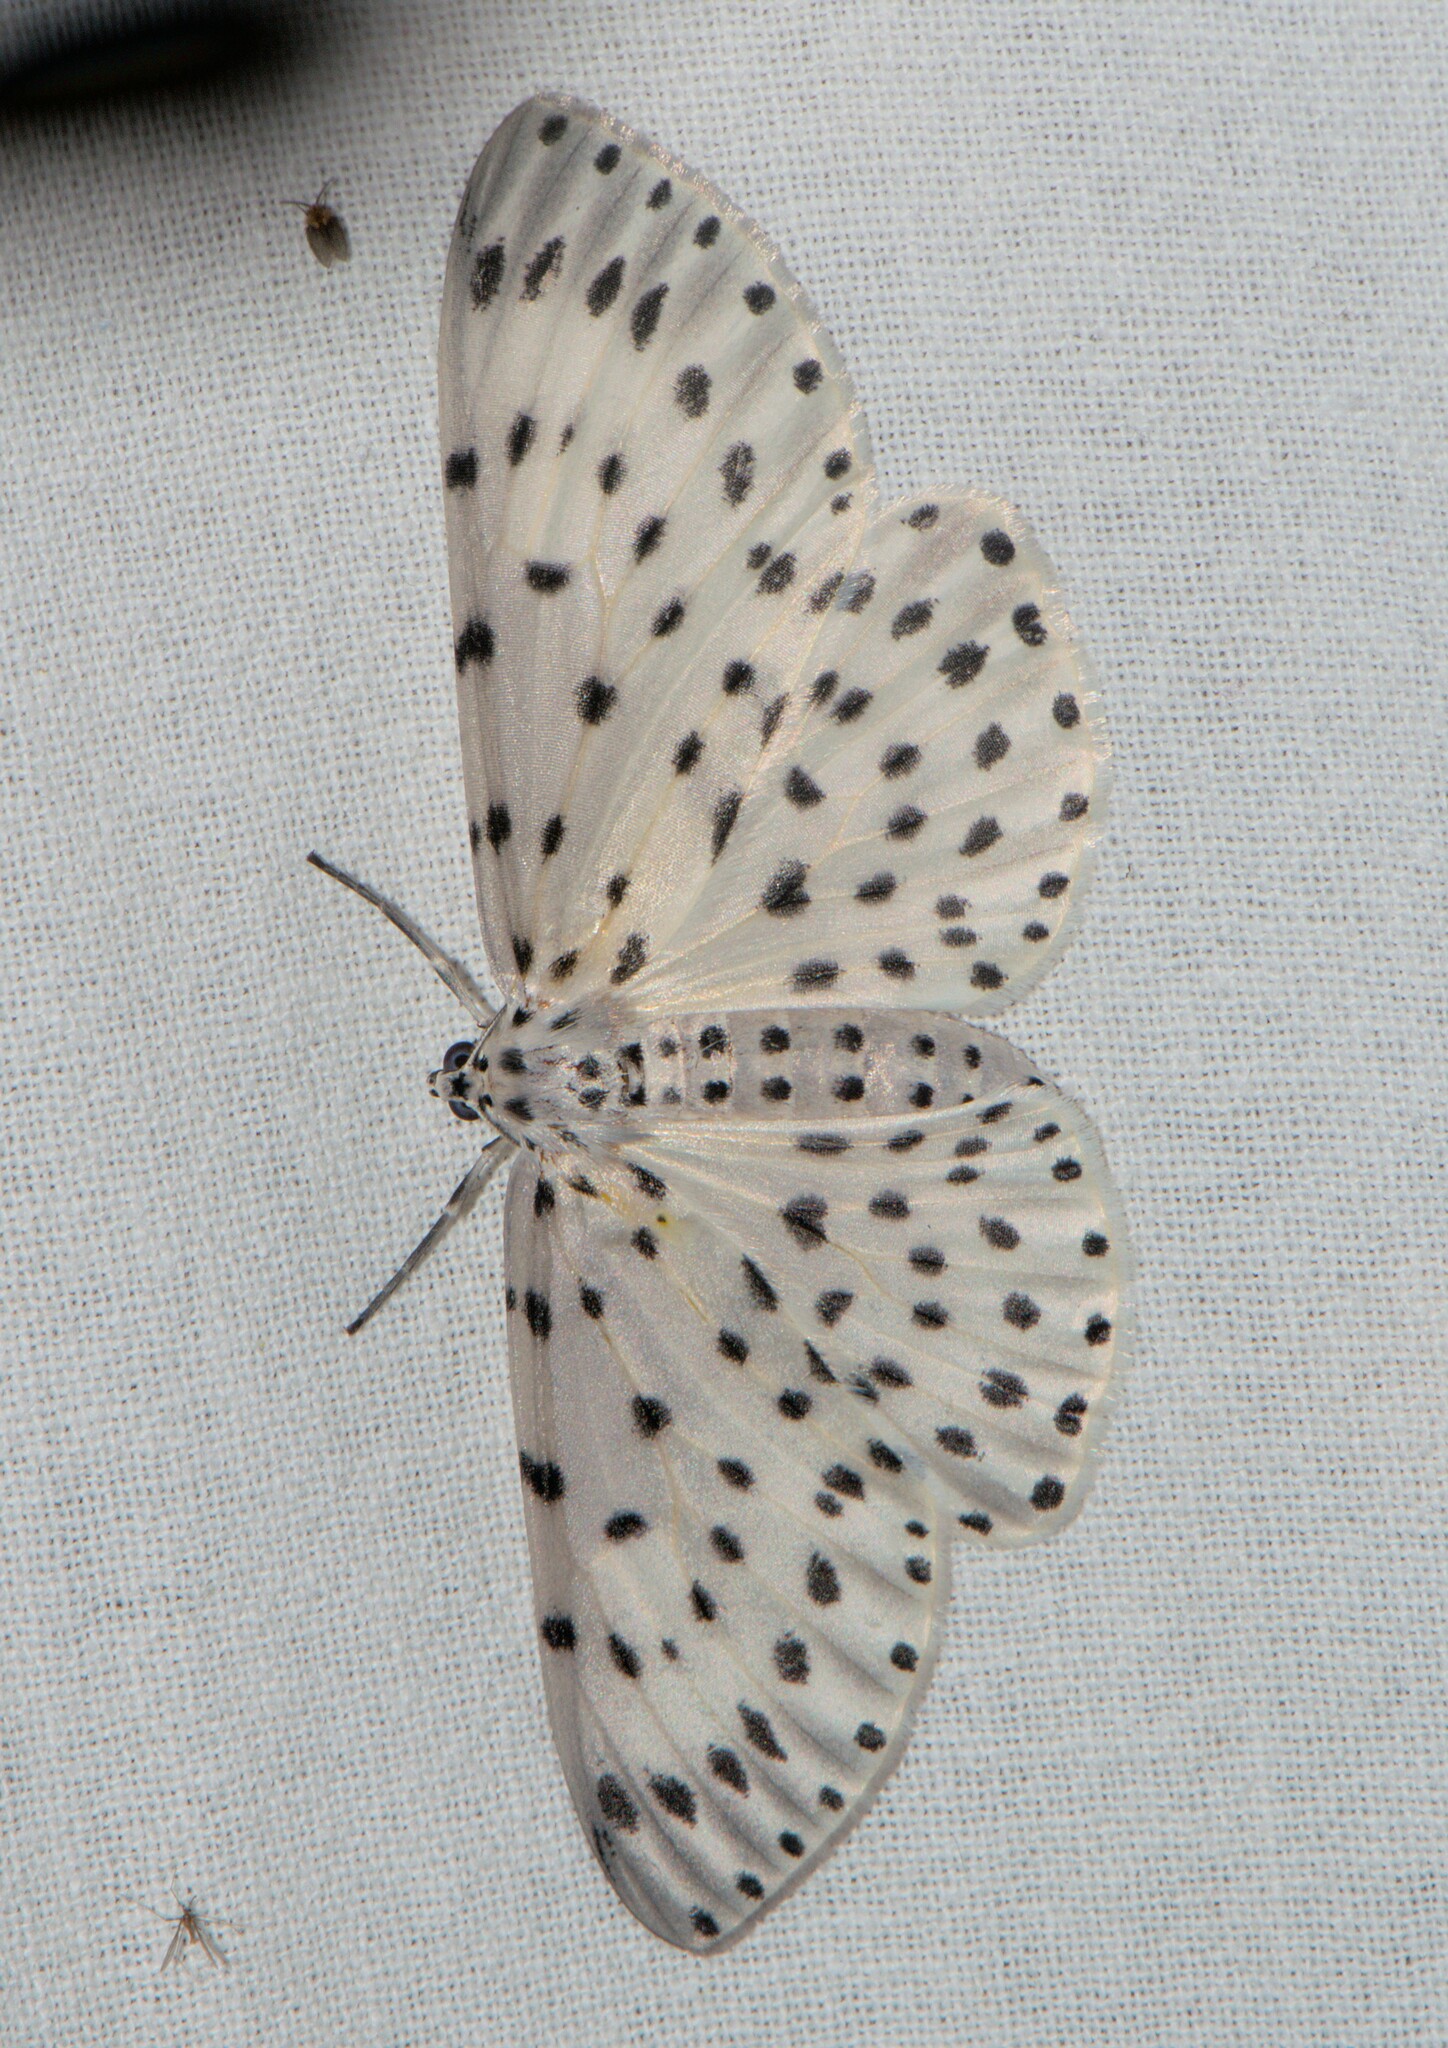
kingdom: Animalia
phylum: Arthropoda
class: Insecta
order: Lepidoptera
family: Geometridae
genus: Antipercnia
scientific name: Antipercnia belluaria
